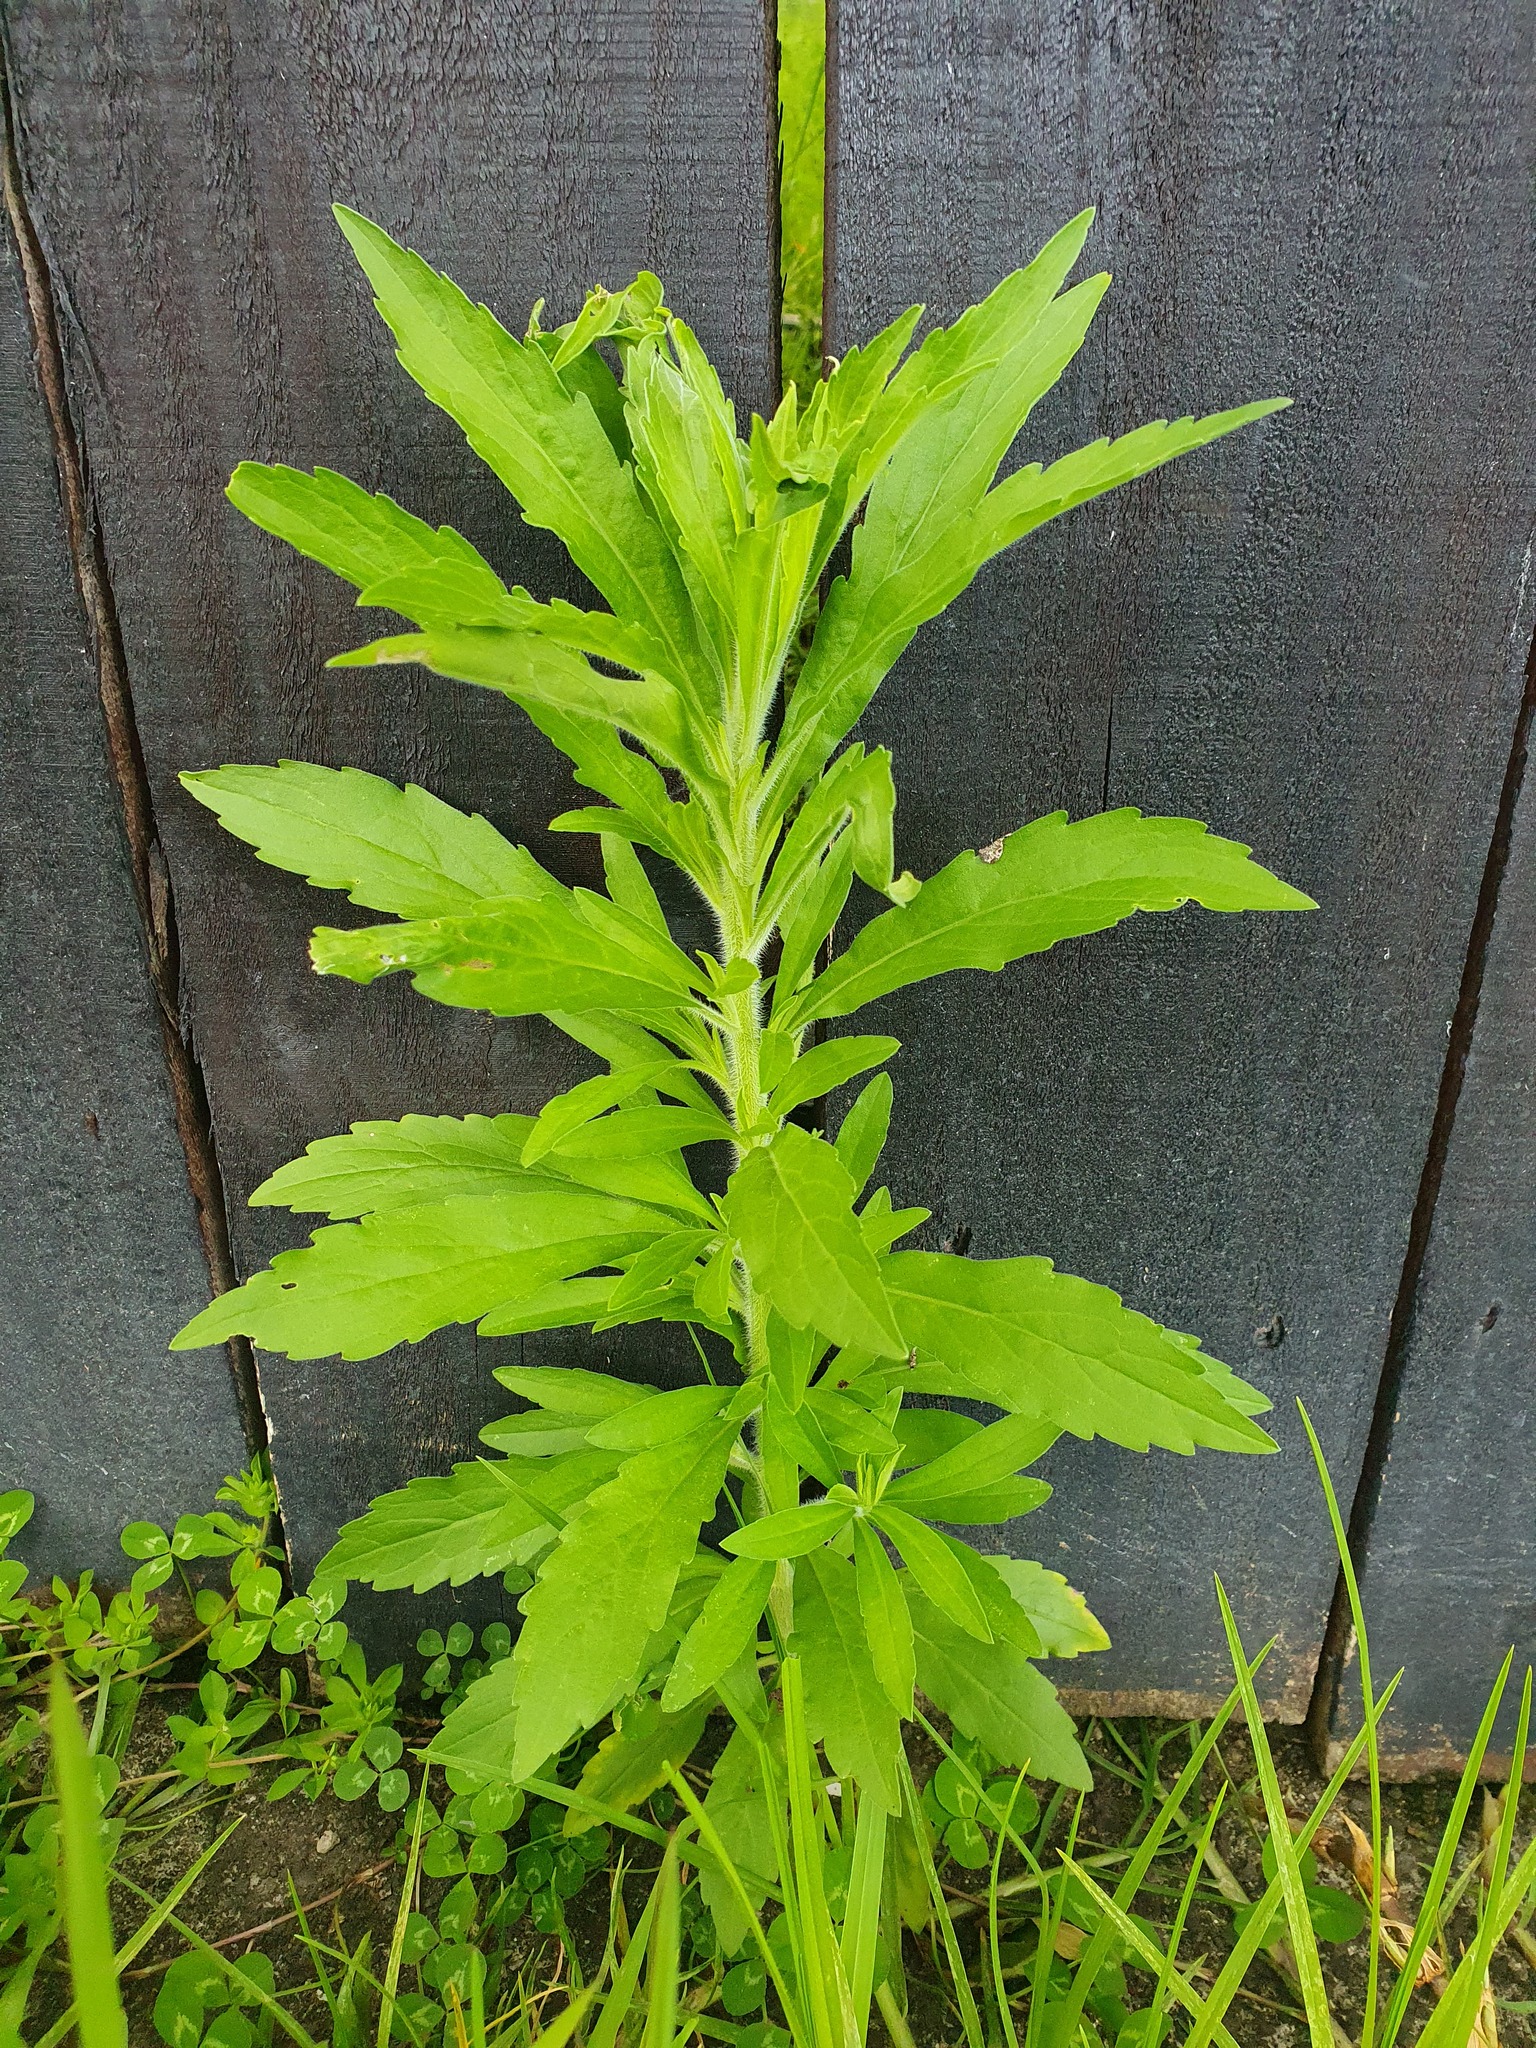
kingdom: Plantae
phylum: Tracheophyta
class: Magnoliopsida
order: Asterales
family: Asteraceae
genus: Erigeron
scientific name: Erigeron sumatrensis
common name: Daisy
